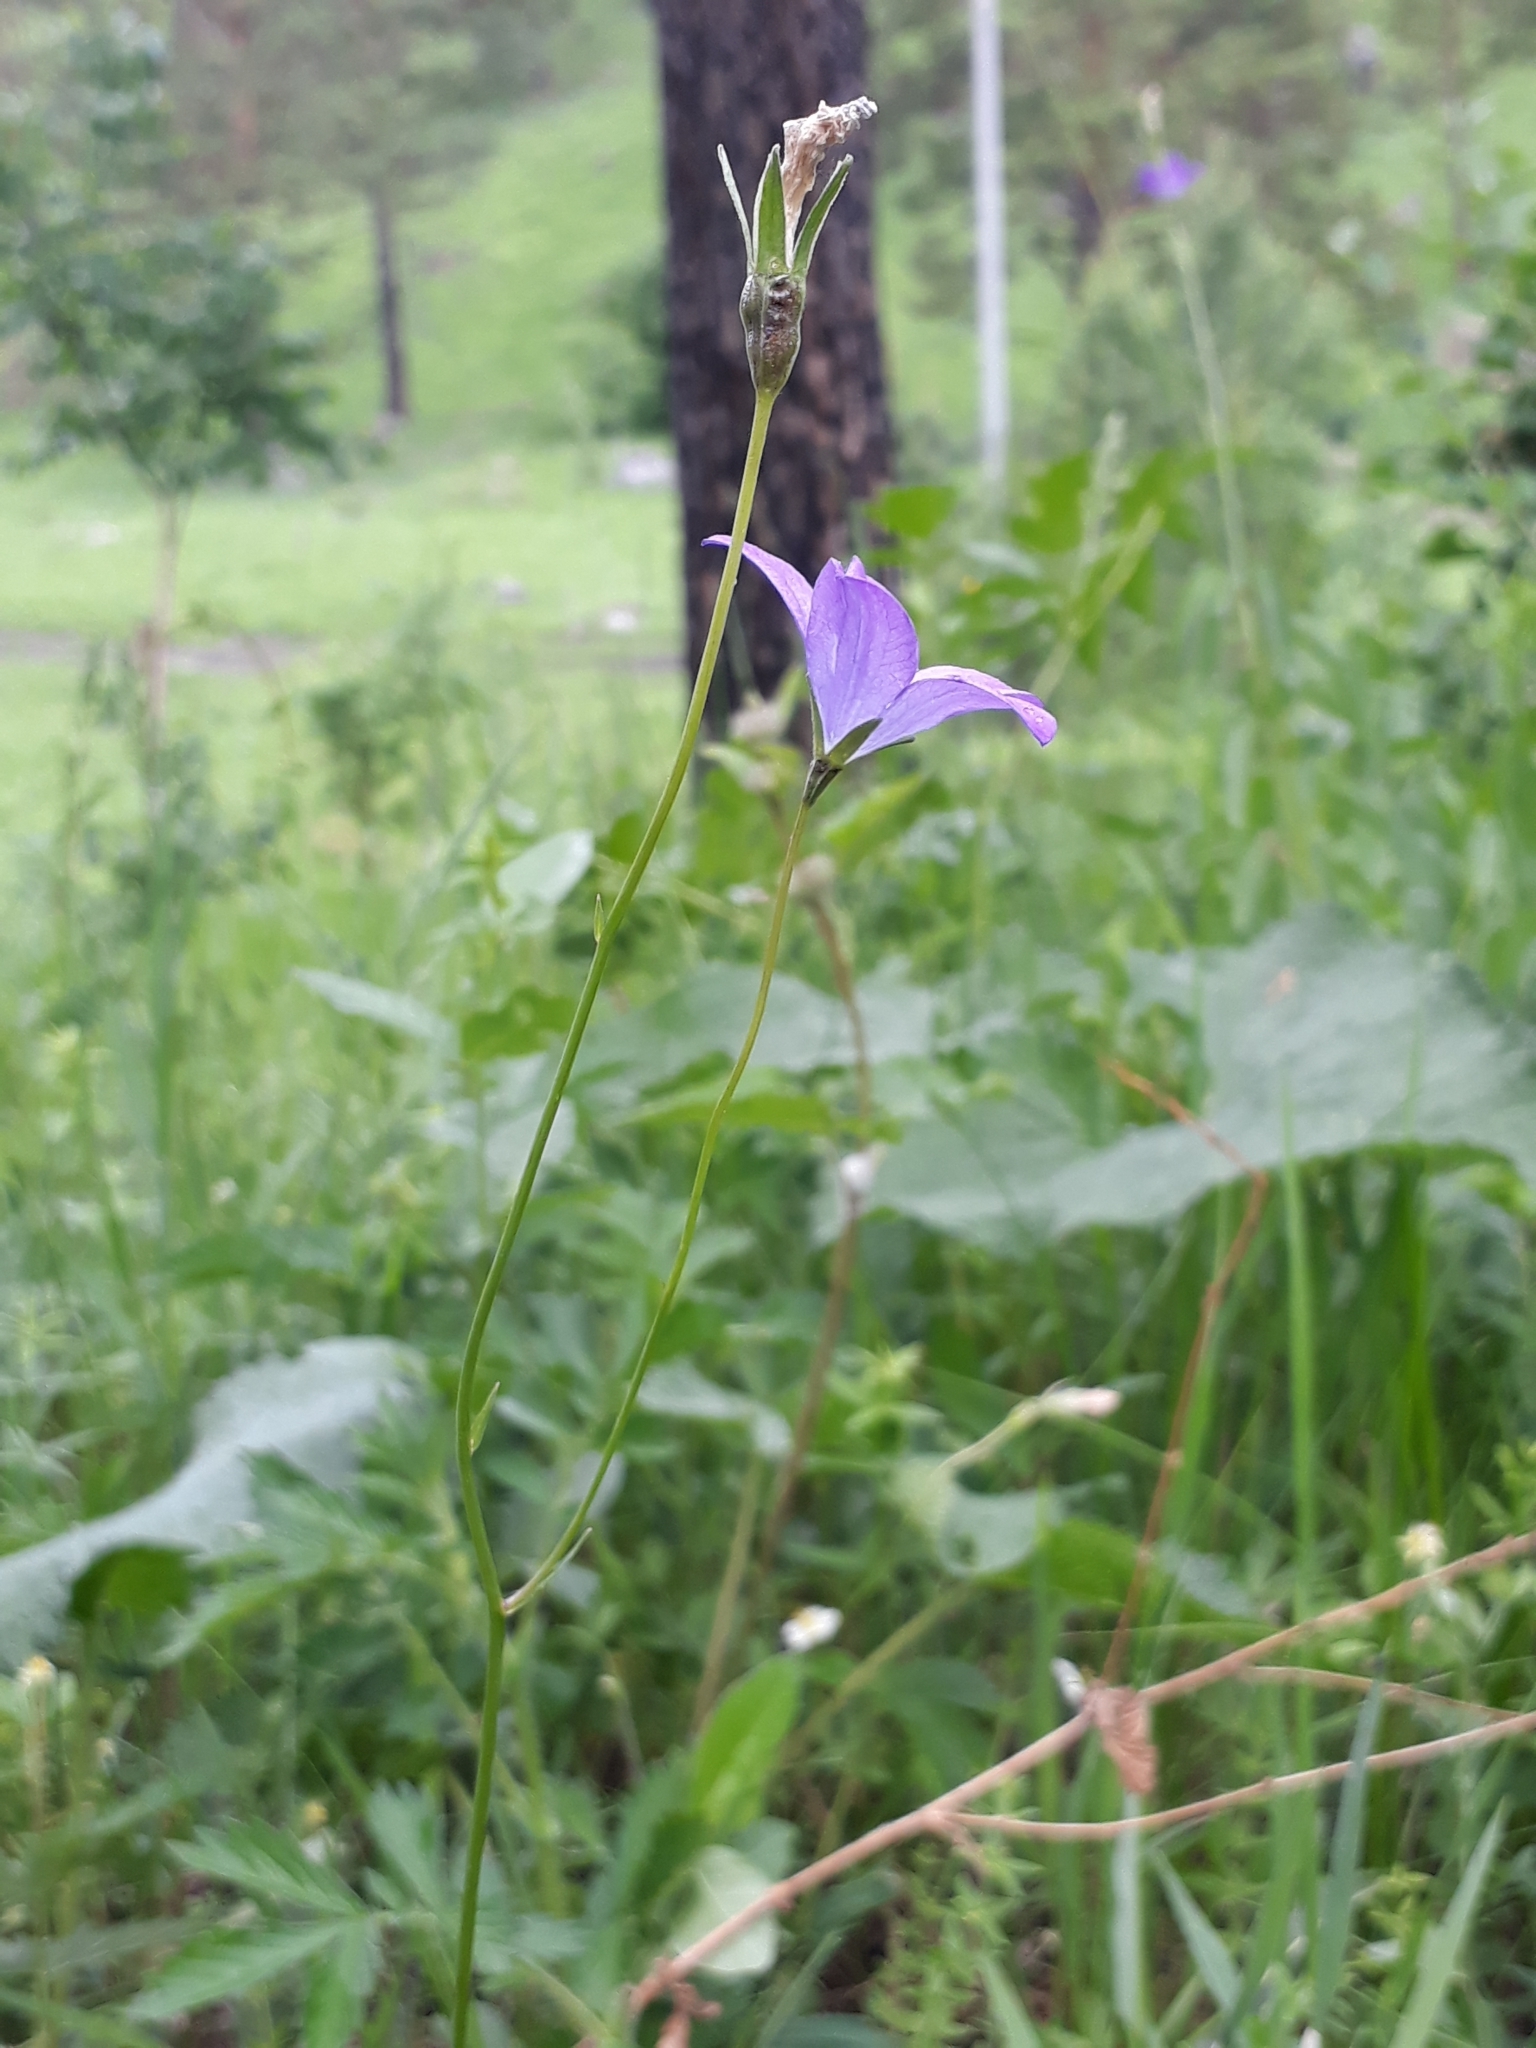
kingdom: Plantae
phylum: Tracheophyta
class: Magnoliopsida
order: Asterales
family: Campanulaceae
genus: Campanula
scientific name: Campanula stevenii
